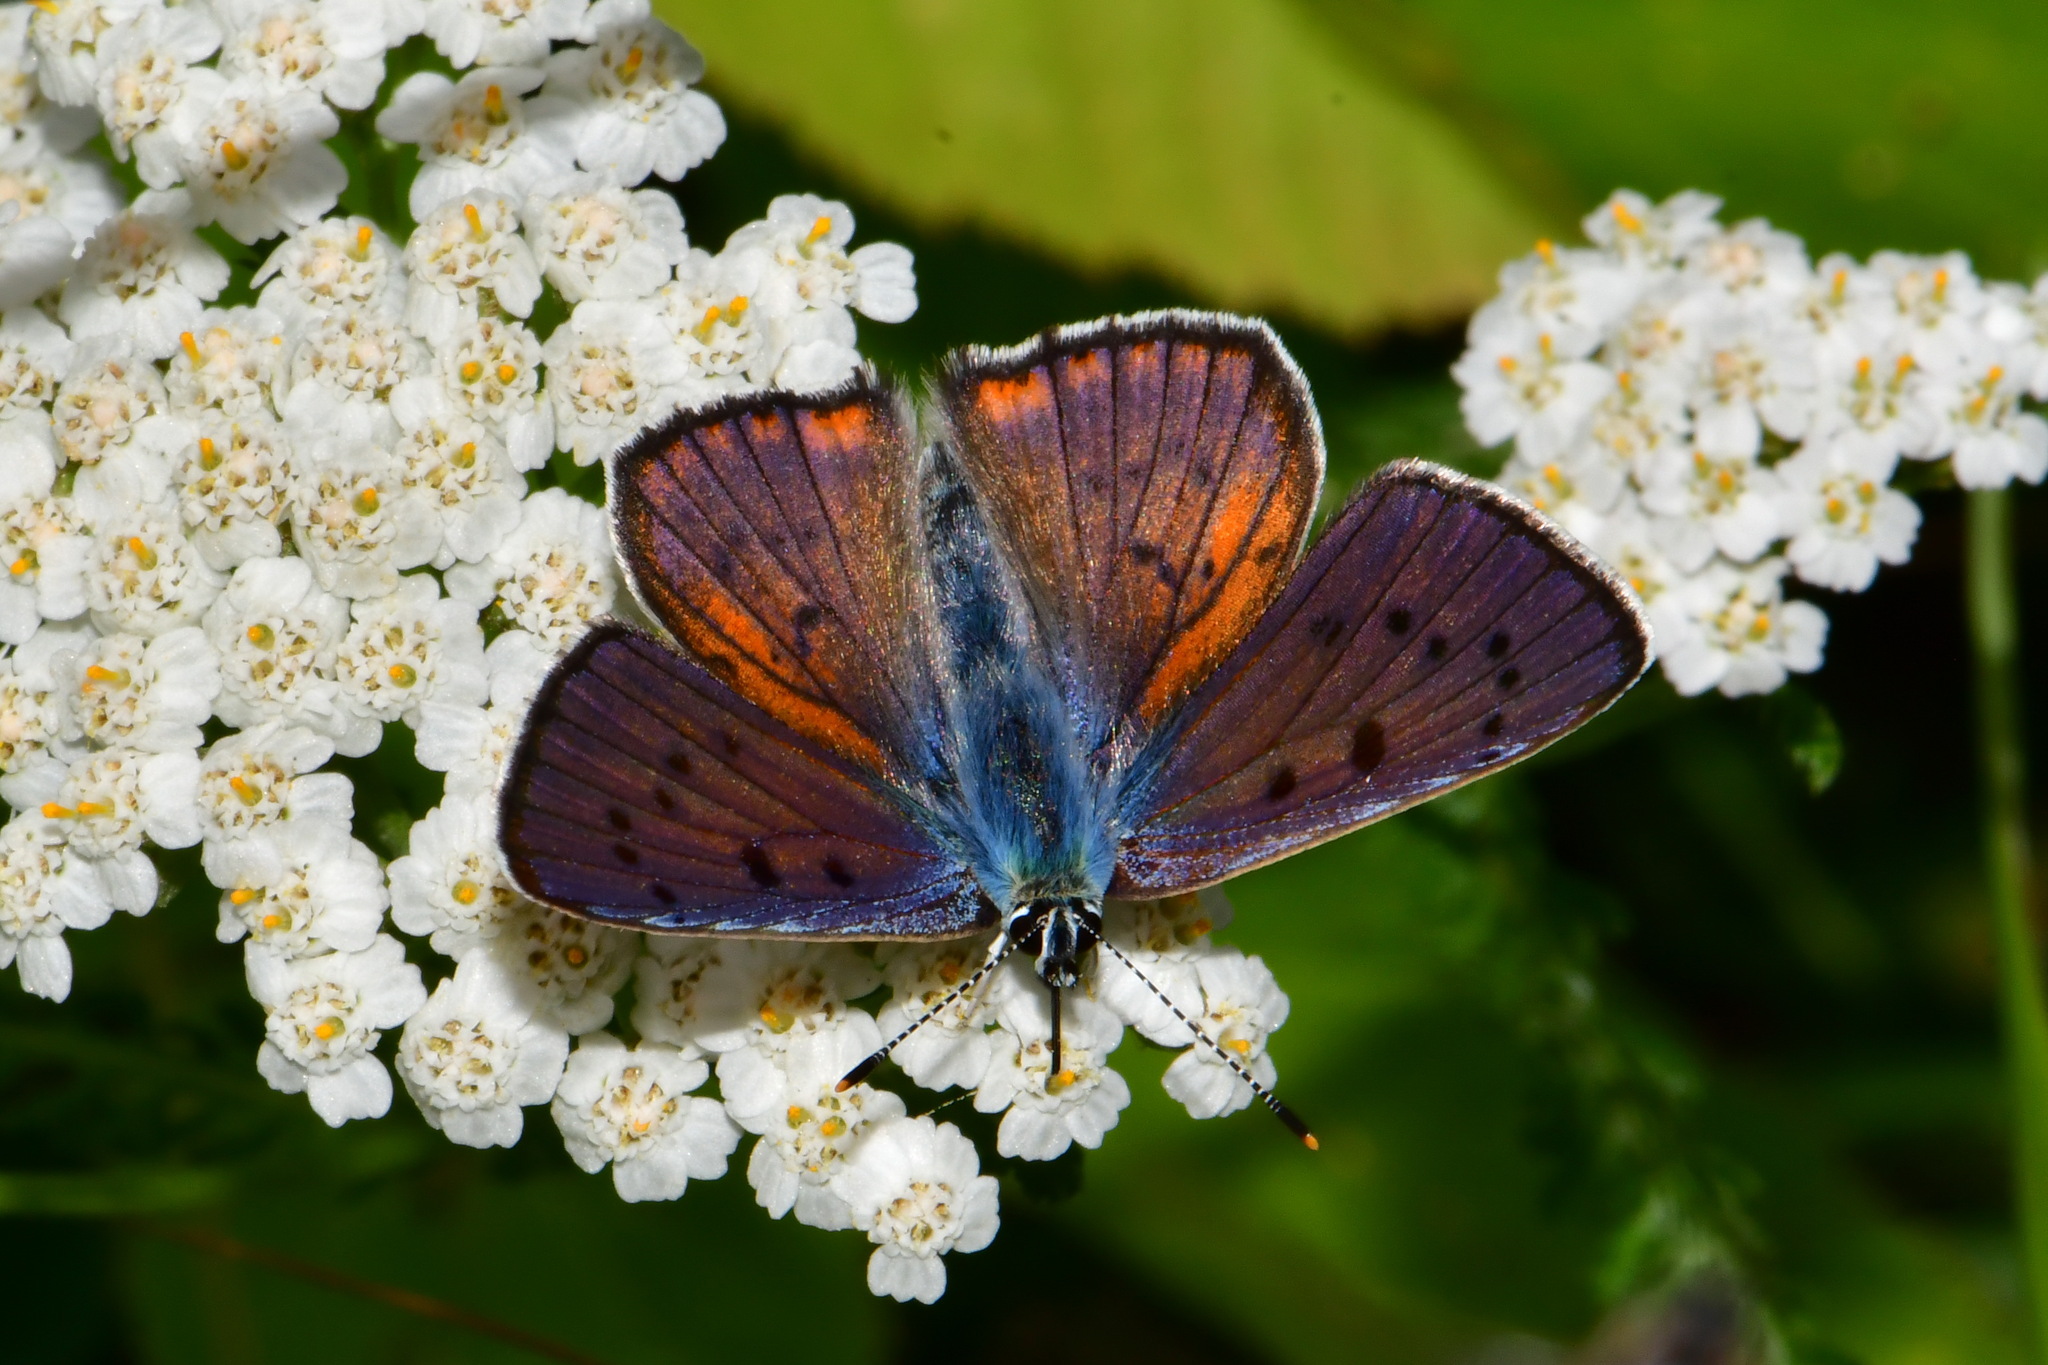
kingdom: Animalia
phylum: Arthropoda
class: Insecta
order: Lepidoptera
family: Lycaenidae
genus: Lycaena
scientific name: Lycaena alciphron
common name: Purple-shot copper
